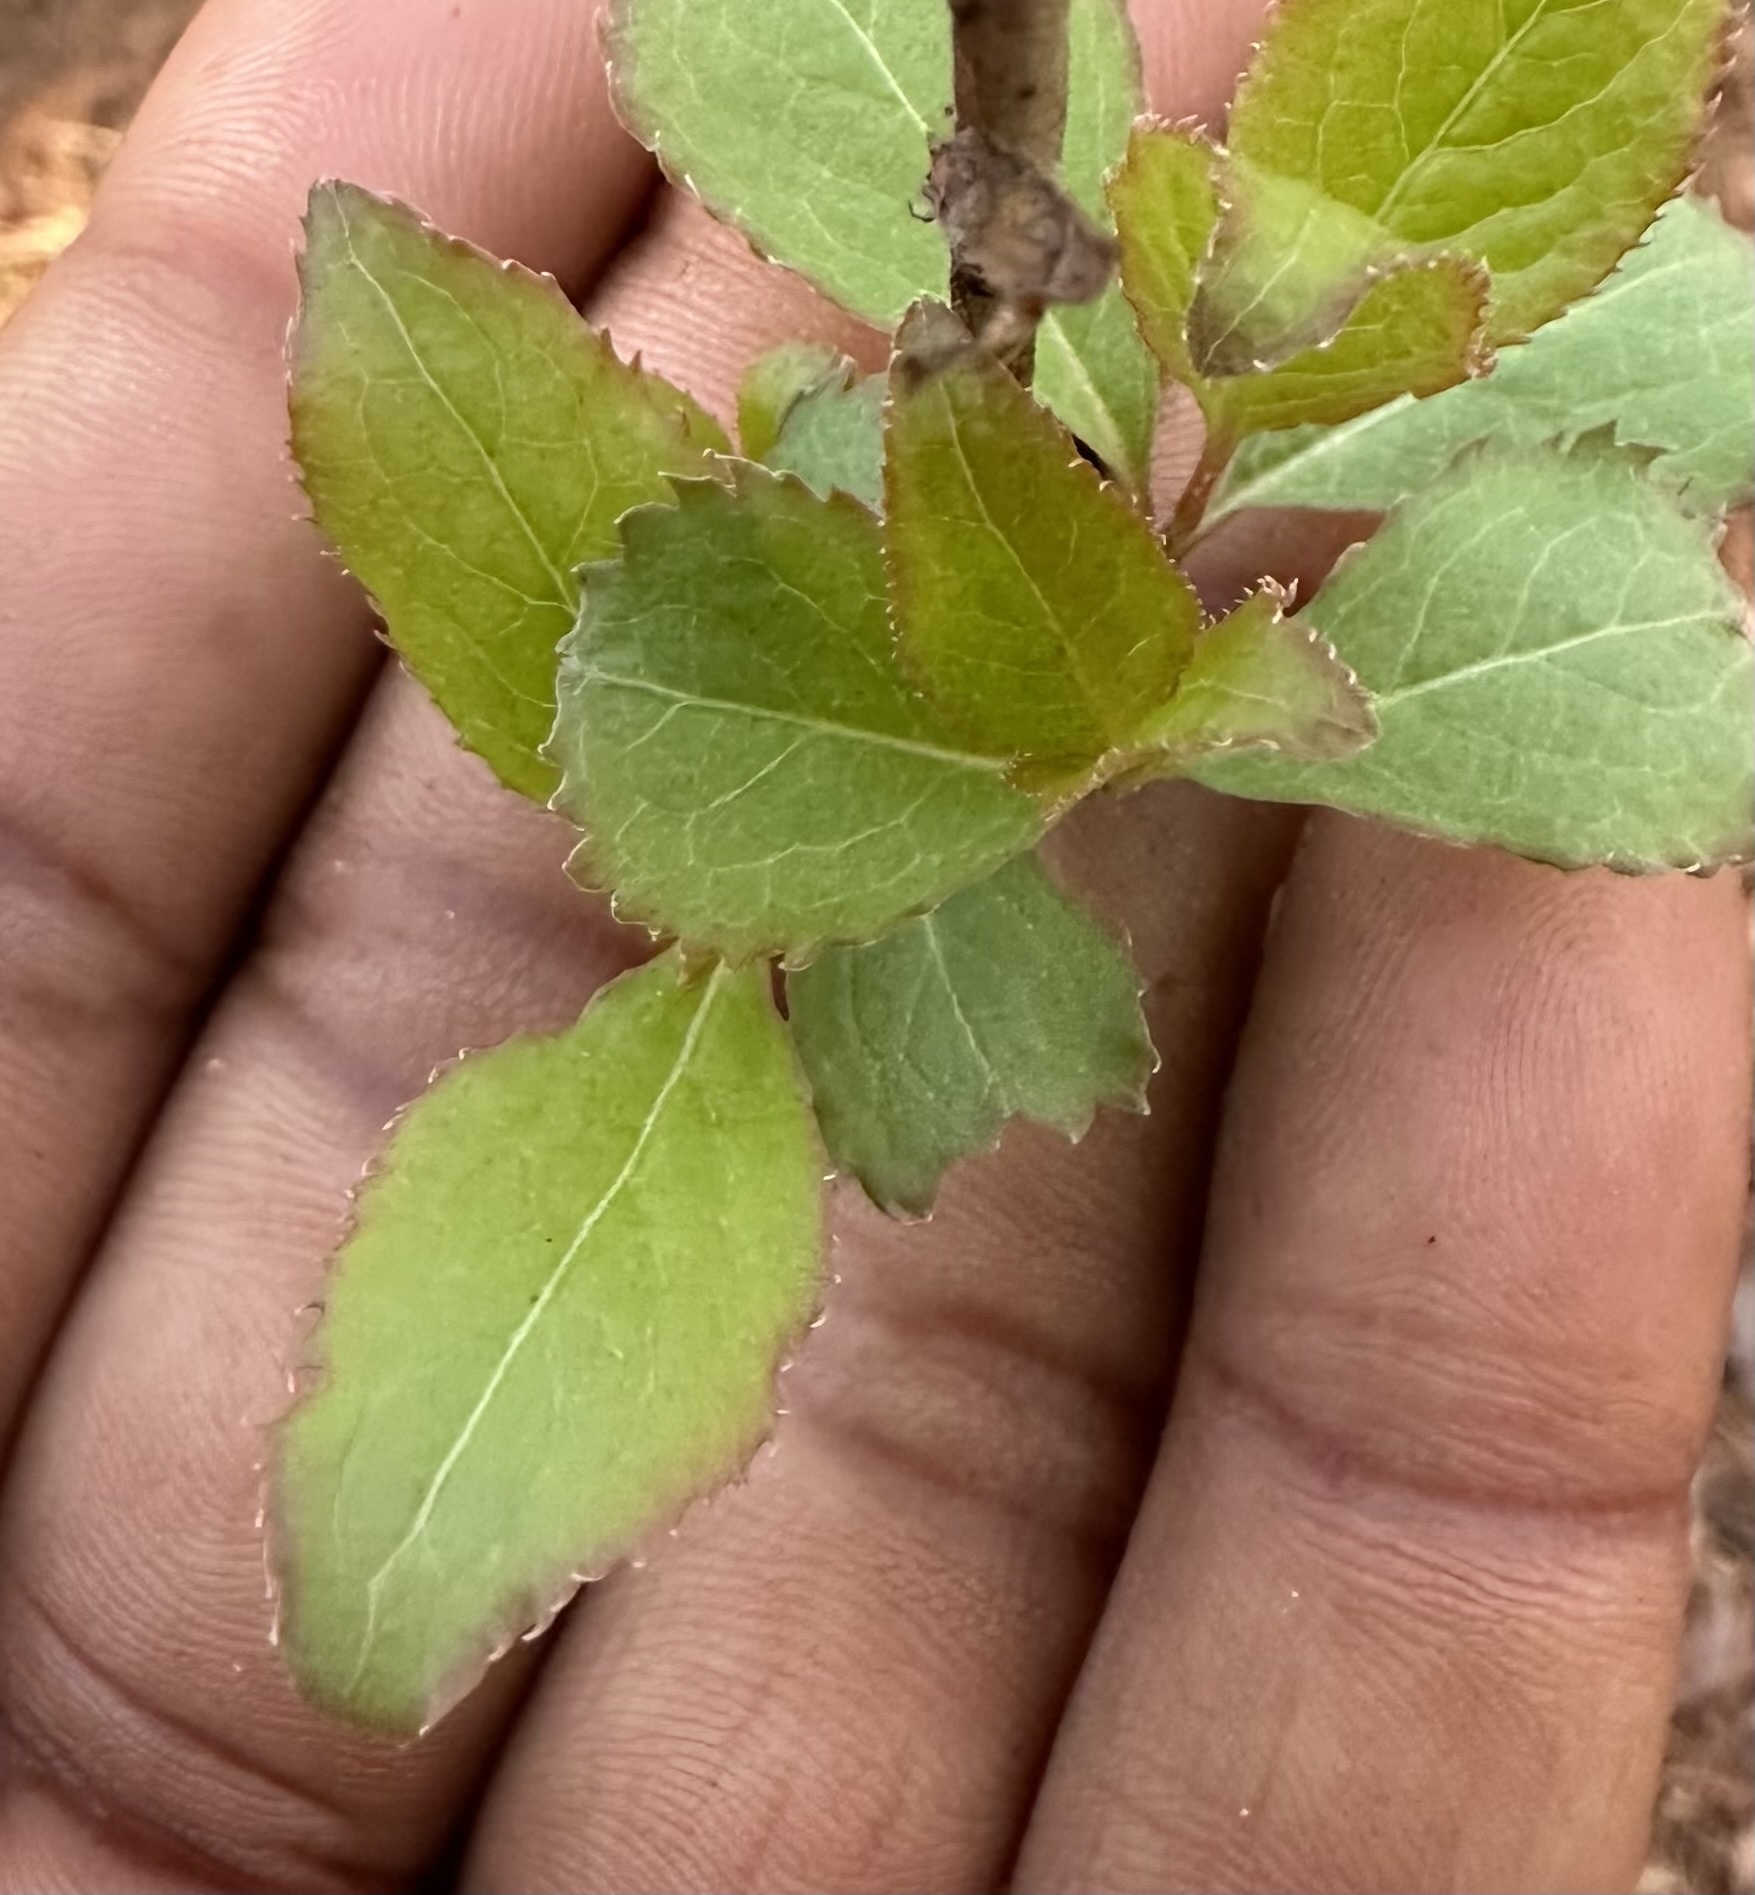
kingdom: Plantae
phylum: Tracheophyta
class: Magnoliopsida
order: Dipsacales
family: Viburnaceae
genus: Viburnum
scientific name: Viburnum prunifolium
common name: Black haw
